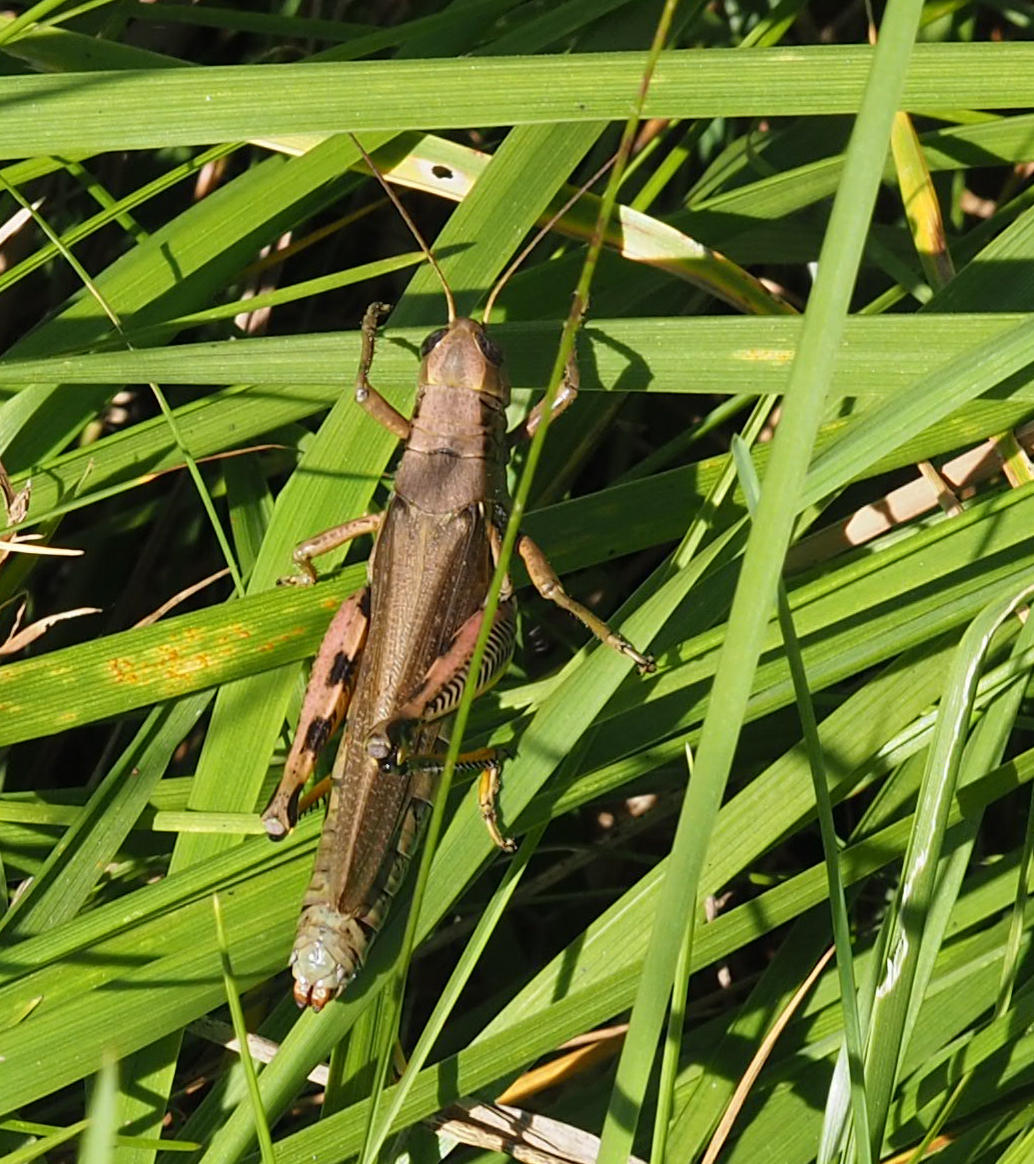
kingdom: Animalia
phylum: Arthropoda
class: Insecta
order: Orthoptera
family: Acrididae
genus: Melanoplus
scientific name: Melanoplus differentialis
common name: Differential grasshopper
